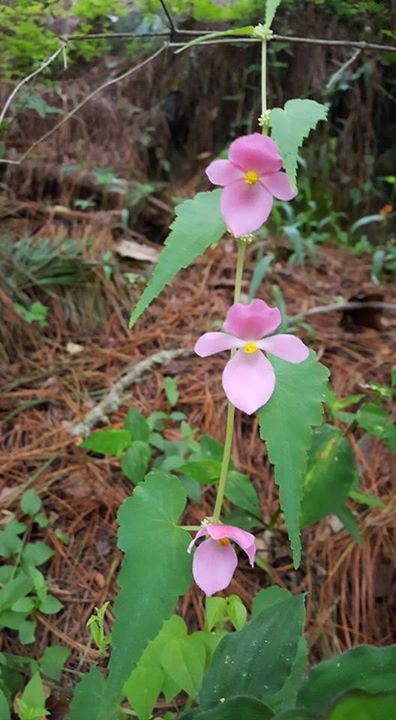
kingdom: Plantae
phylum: Tracheophyta
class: Magnoliopsida
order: Cucurbitales
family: Begoniaceae
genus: Begonia
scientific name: Begonia gracilis
